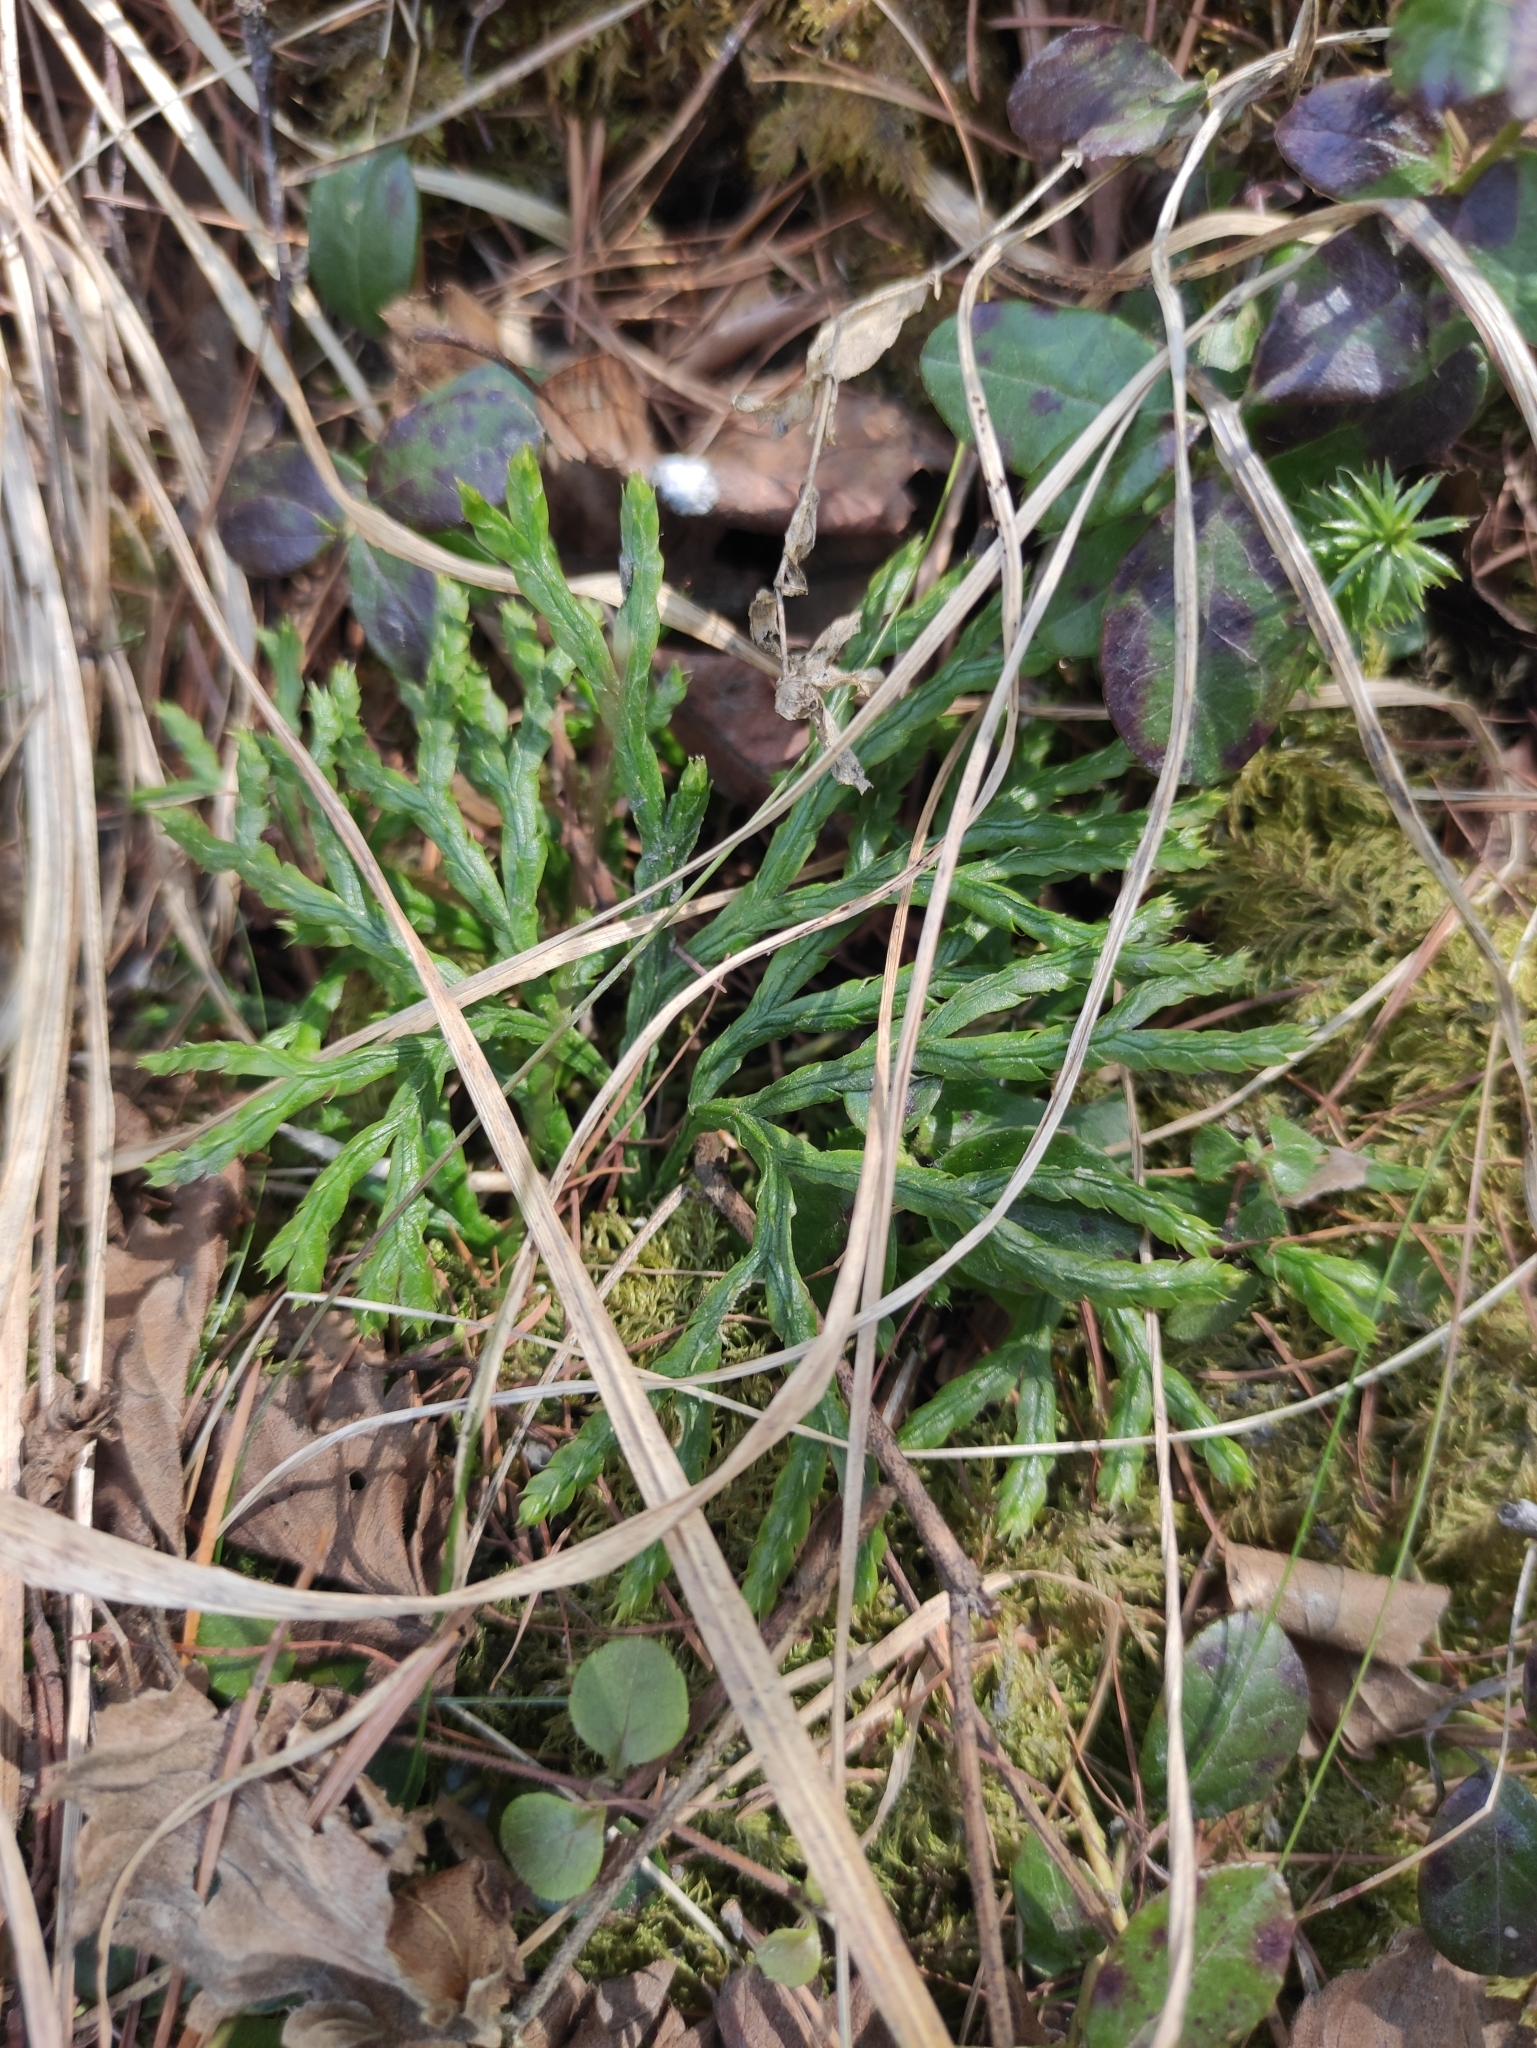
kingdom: Plantae
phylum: Tracheophyta
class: Lycopodiopsida
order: Lycopodiales
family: Lycopodiaceae
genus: Diphasiastrum
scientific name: Diphasiastrum complanatum
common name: Northern running-pine
